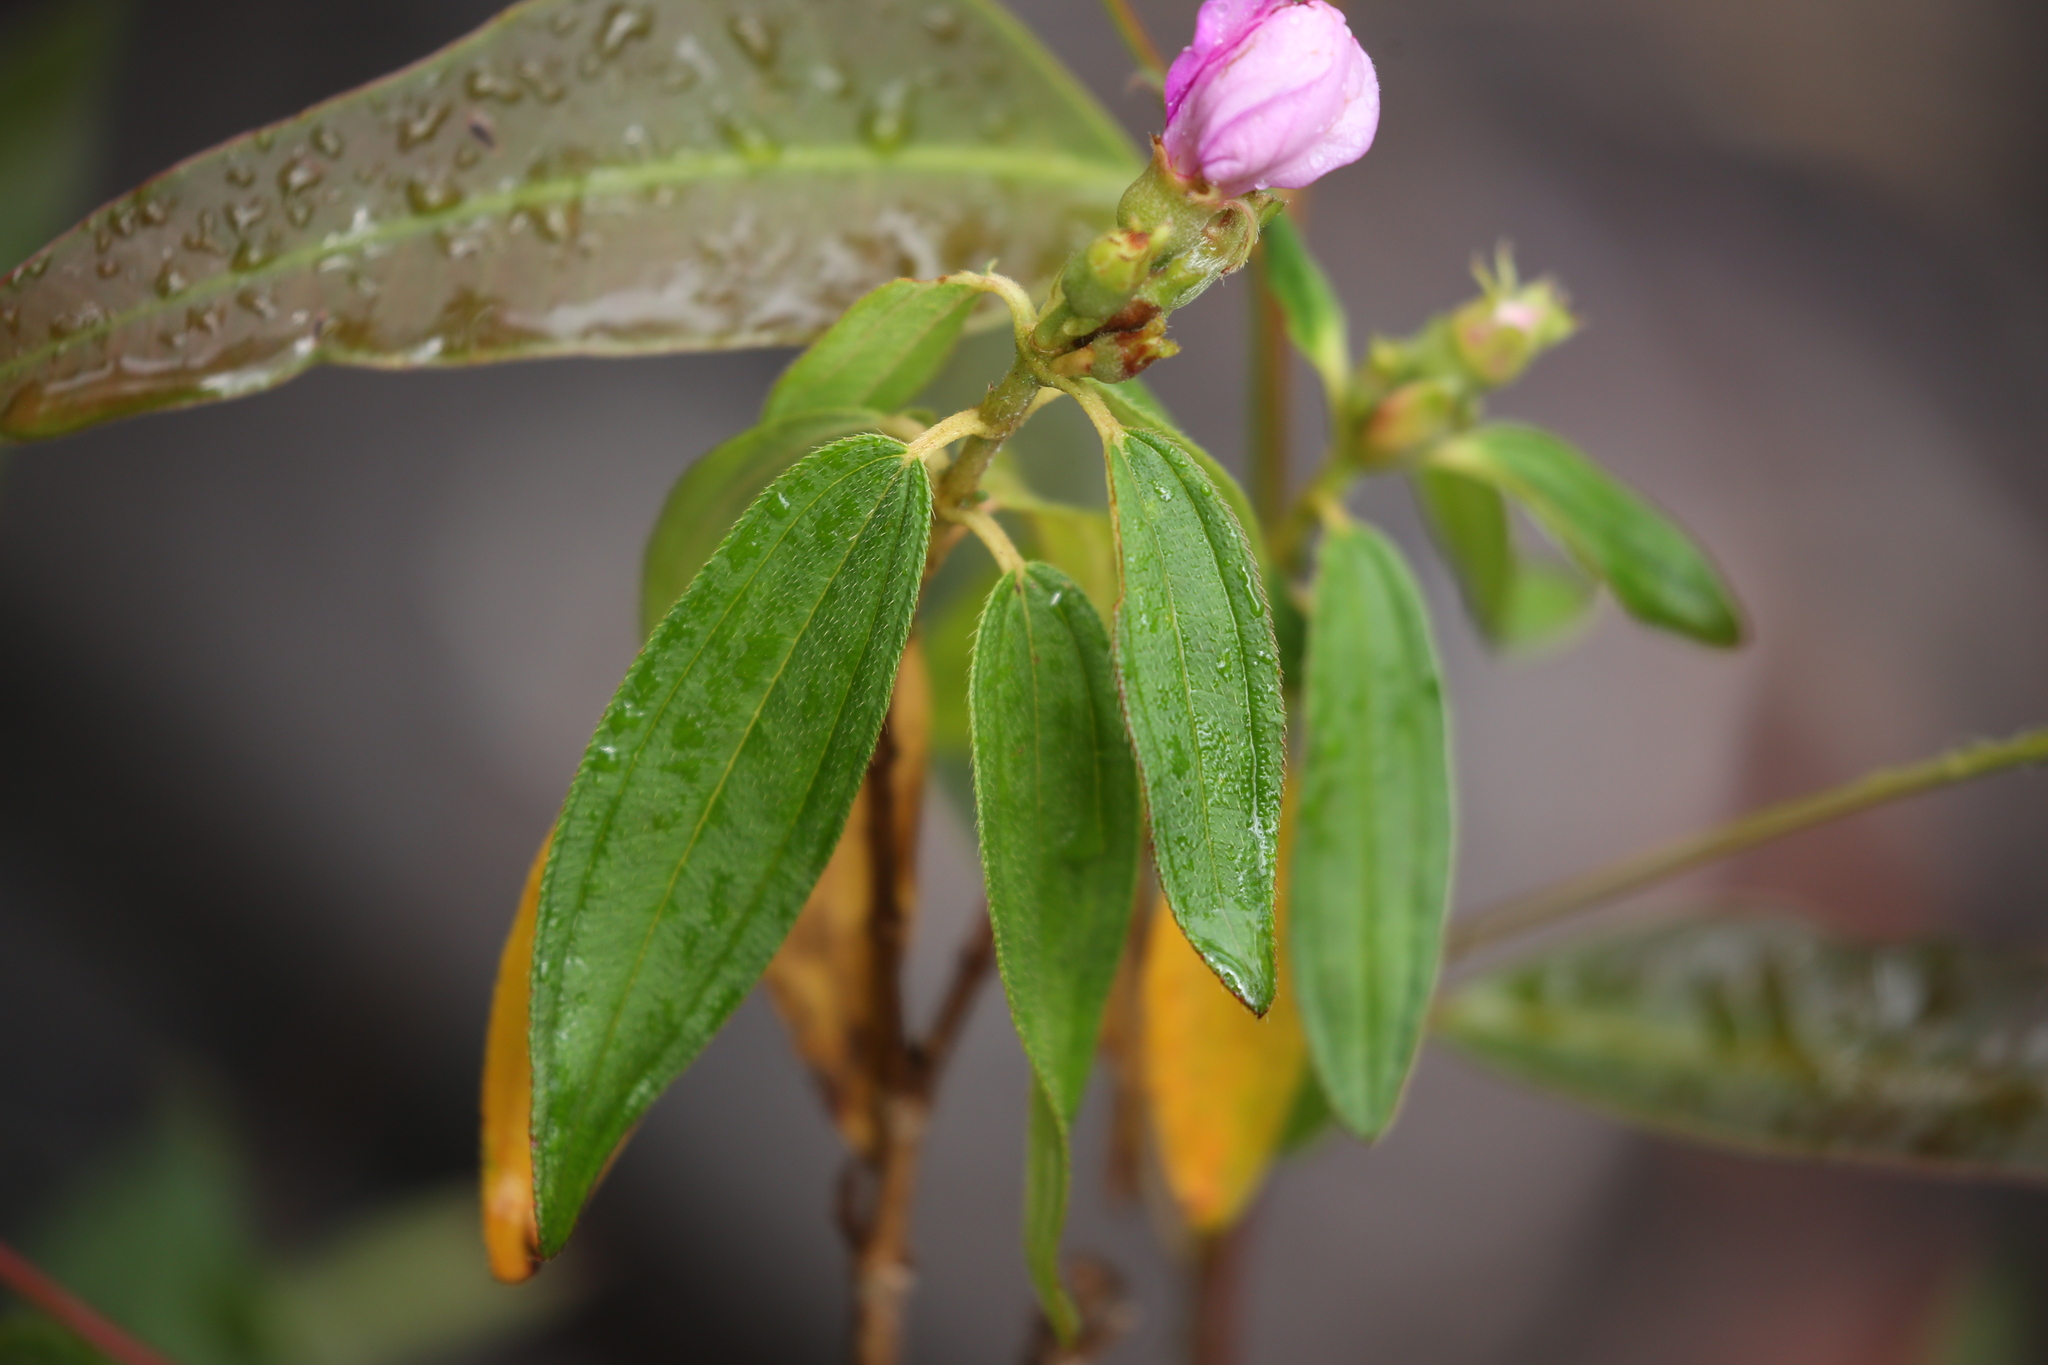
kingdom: Plantae
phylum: Tracheophyta
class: Magnoliopsida
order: Myrtales
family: Melastomataceae
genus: Melastoma
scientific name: Melastoma malabathricum
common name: Indian-rhododendron
